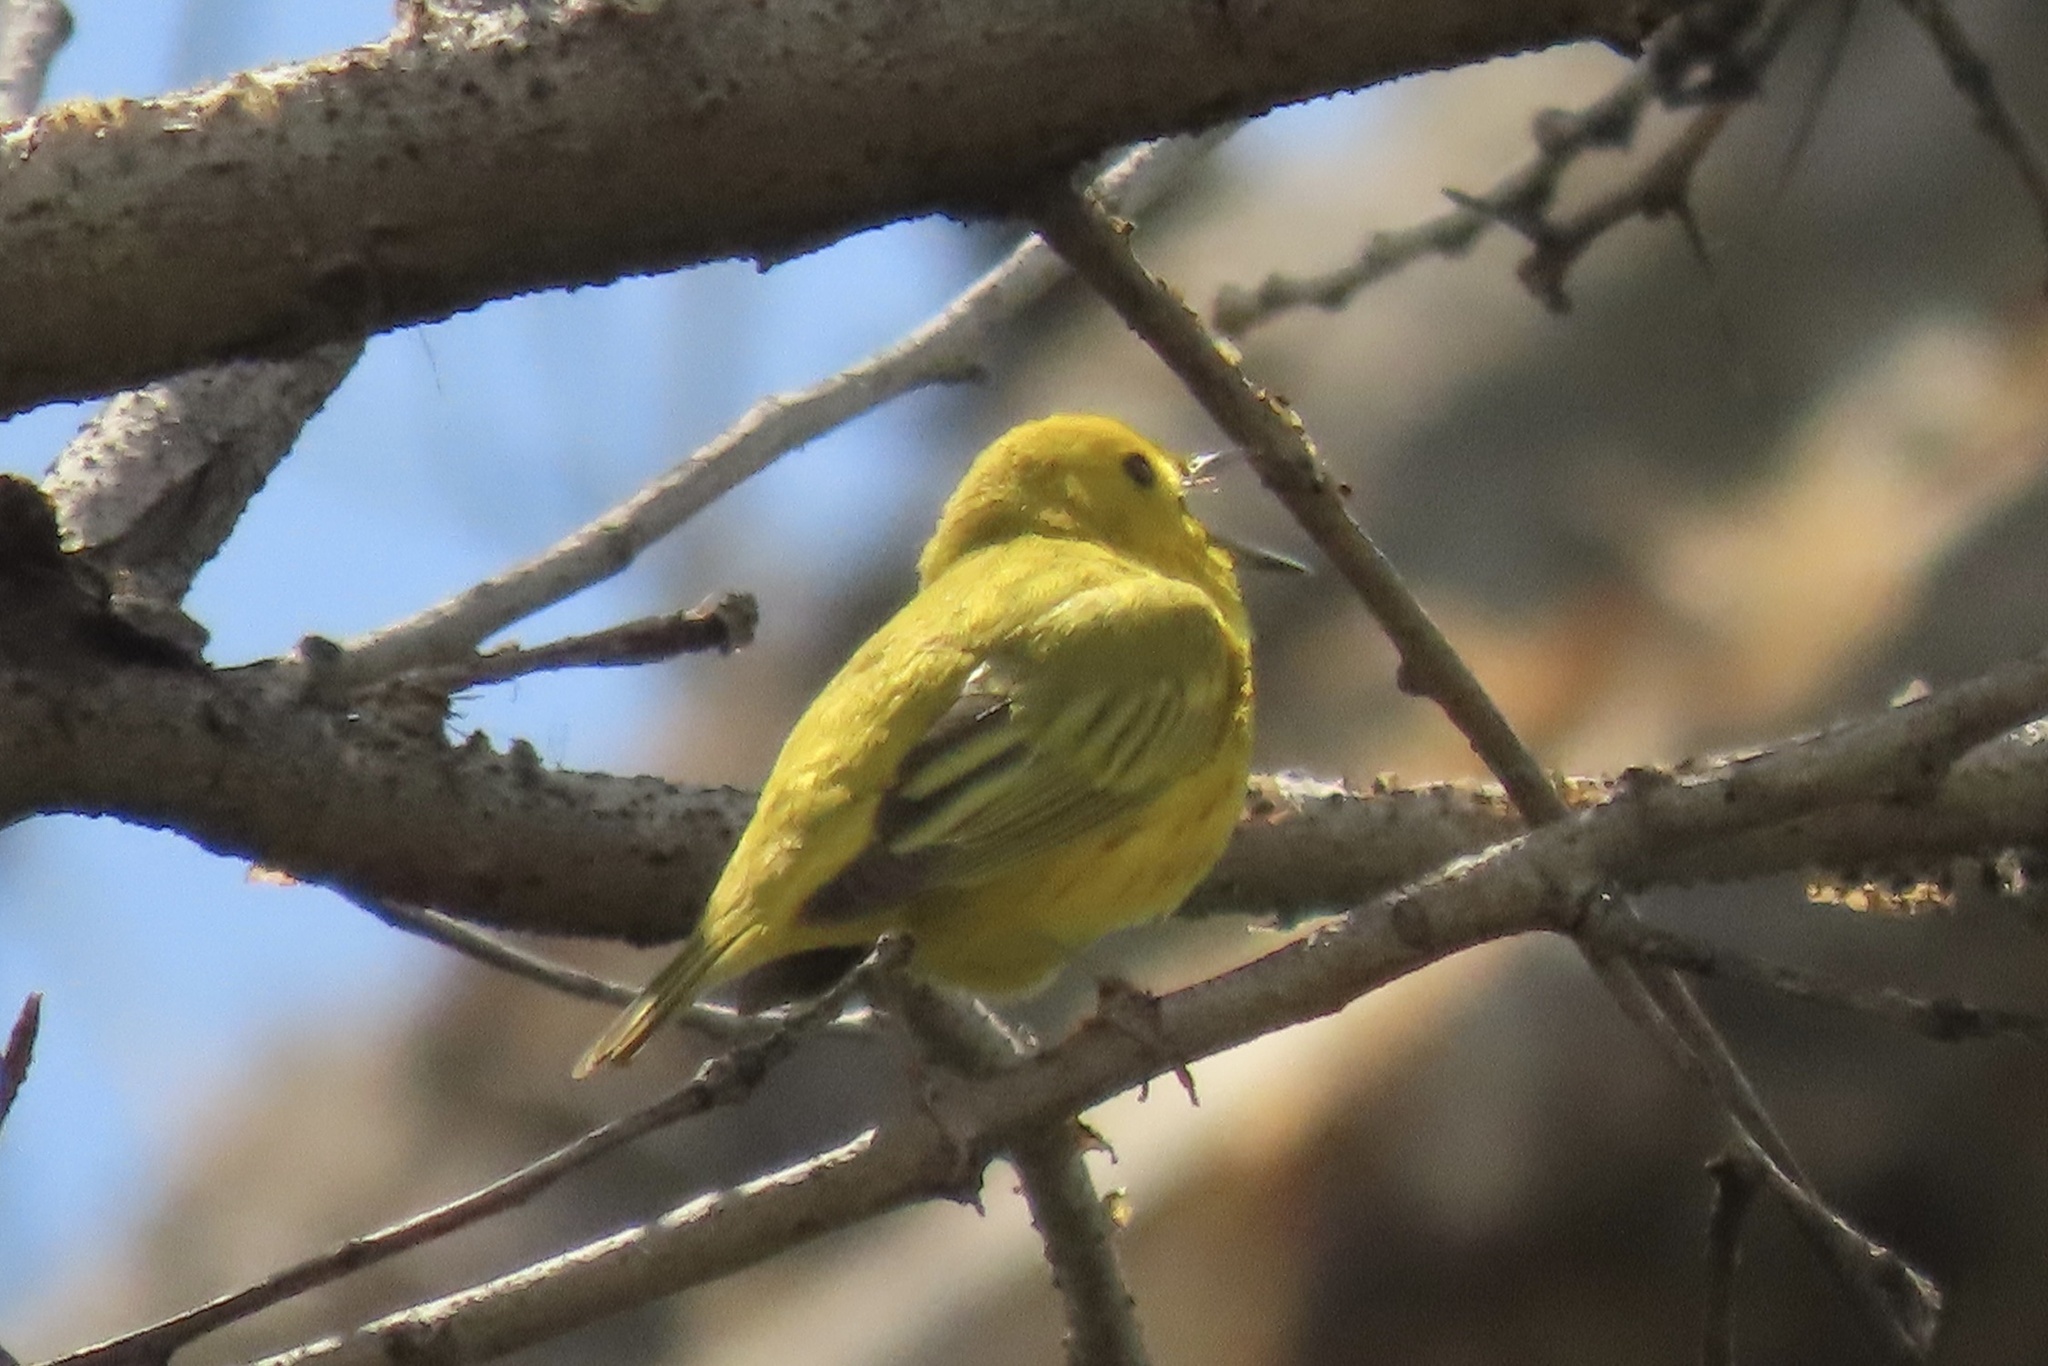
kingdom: Animalia
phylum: Chordata
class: Aves
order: Passeriformes
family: Parulidae
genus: Setophaga
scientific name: Setophaga petechia
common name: Yellow warbler
